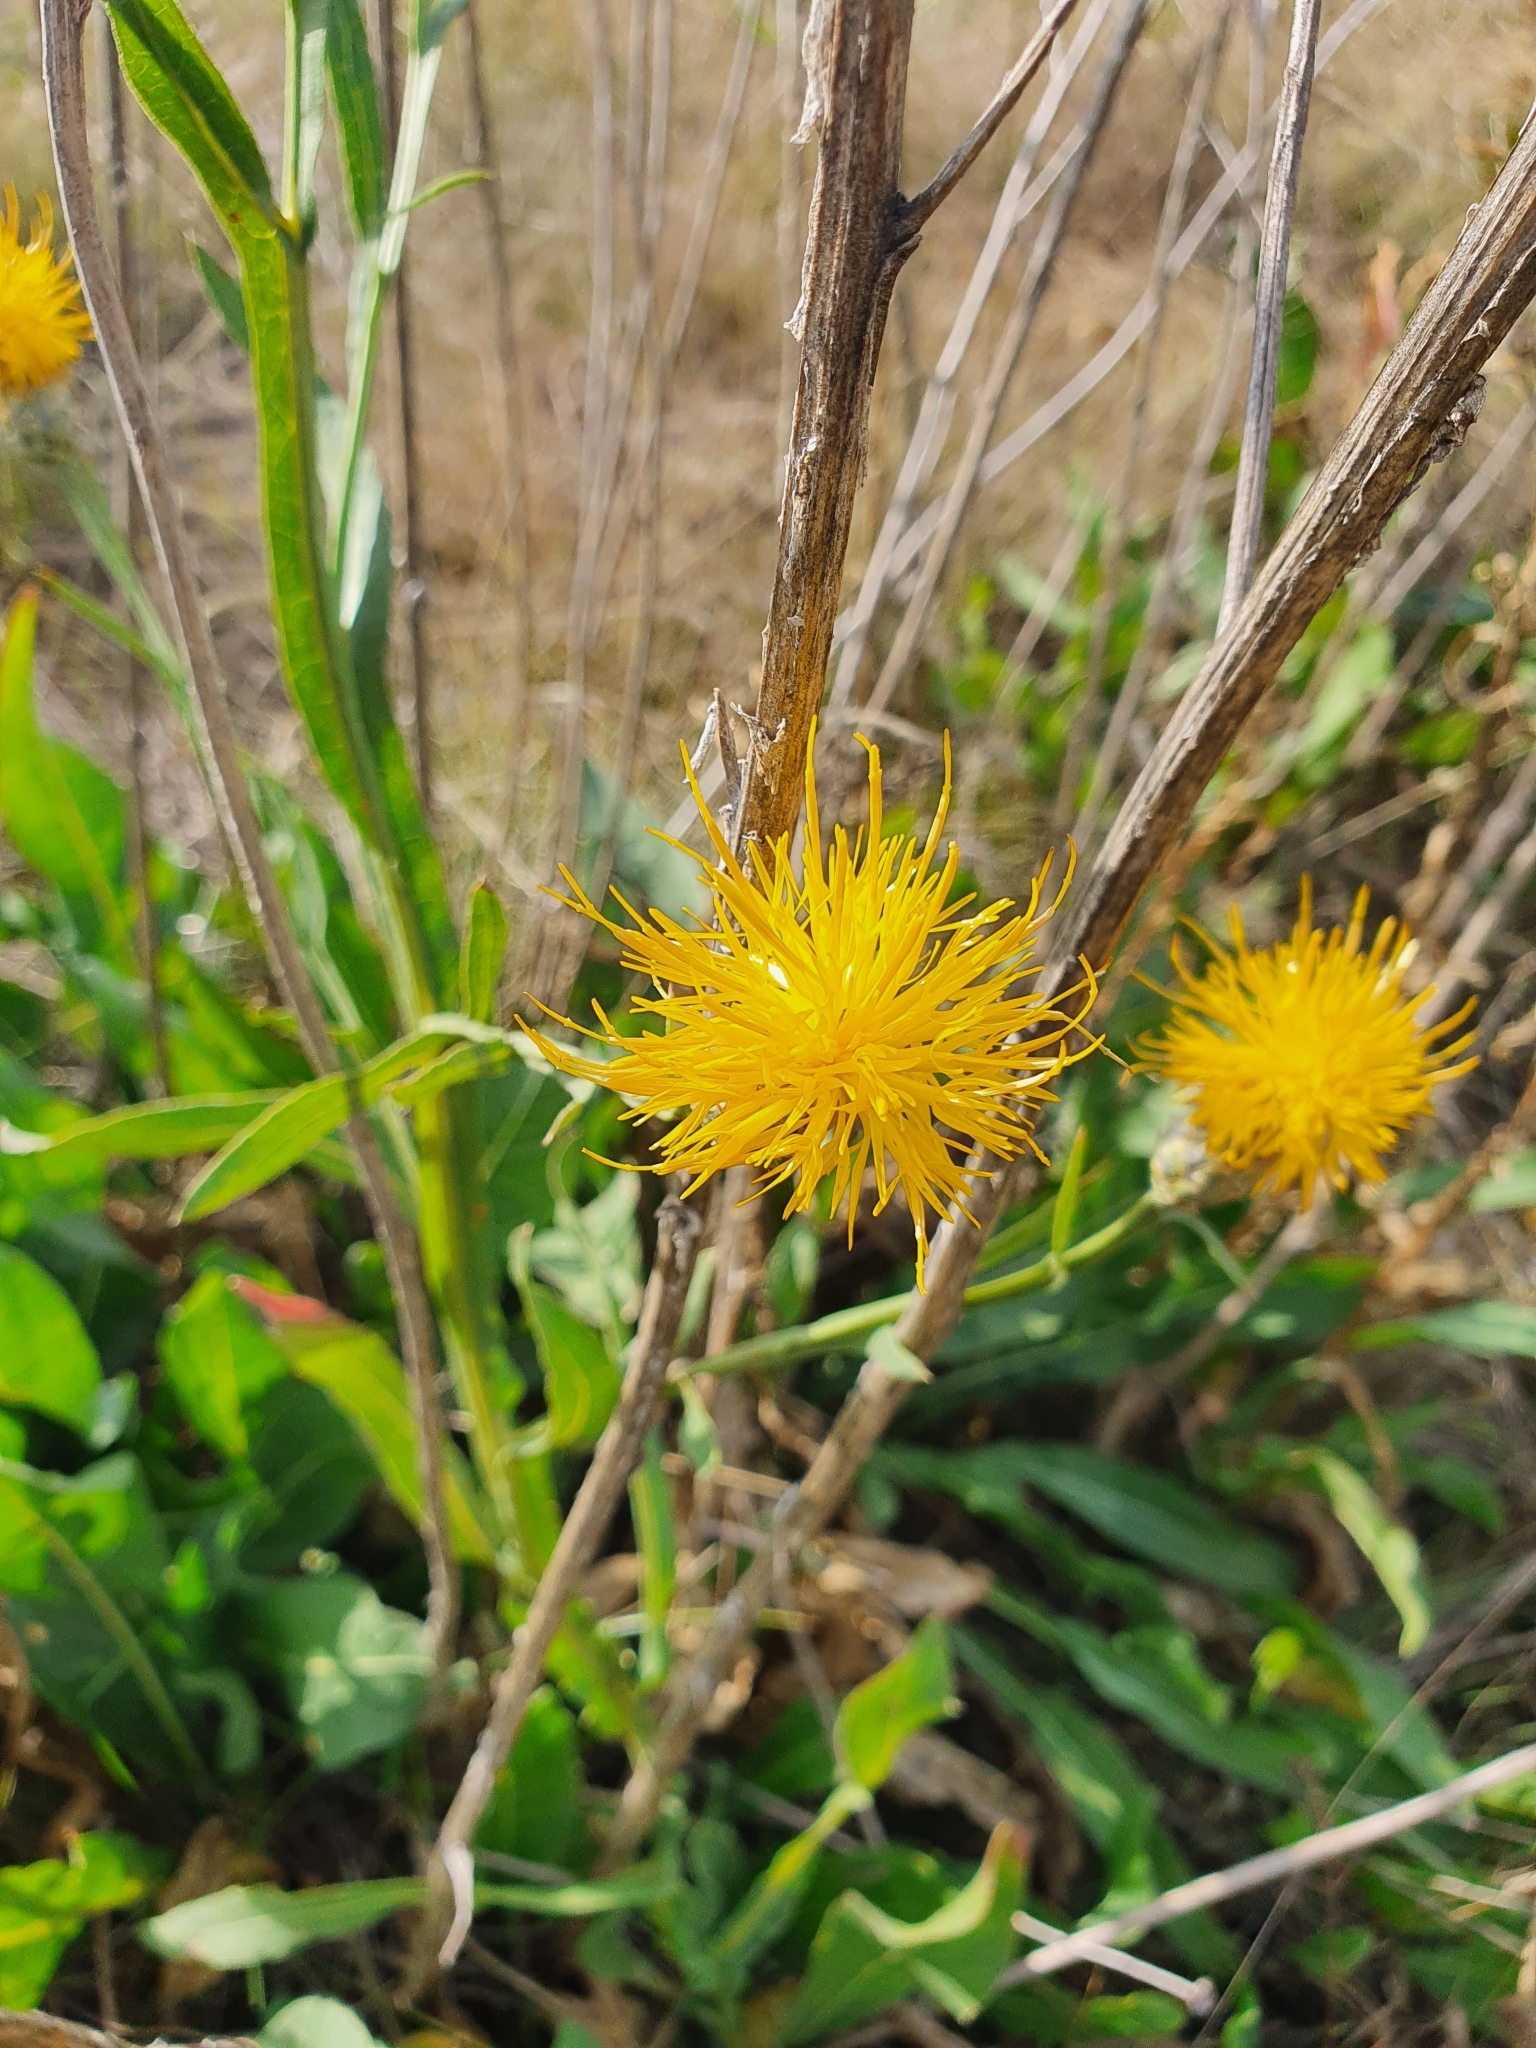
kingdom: Plantae
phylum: Tracheophyta
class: Magnoliopsida
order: Asterales
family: Asteraceae
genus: Centaurea
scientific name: Centaurea glastifolia
